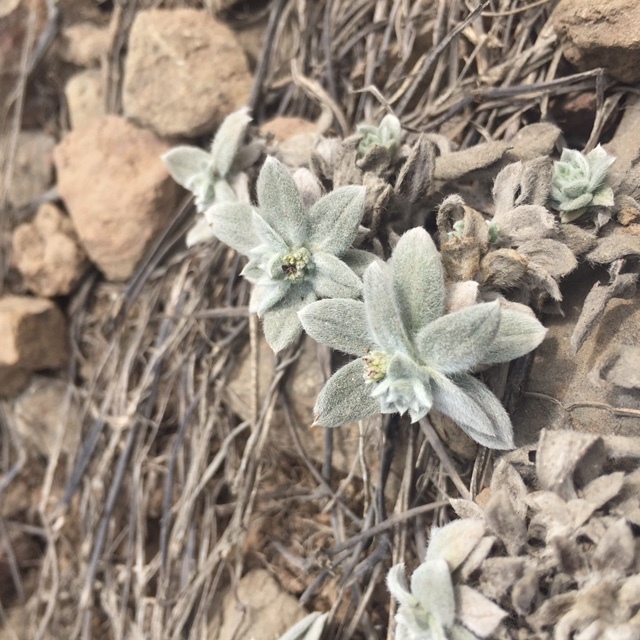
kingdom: Plantae
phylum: Tracheophyta
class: Magnoliopsida
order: Boraginales
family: Heliotropiaceae
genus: Euploca
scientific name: Euploca pilosa
